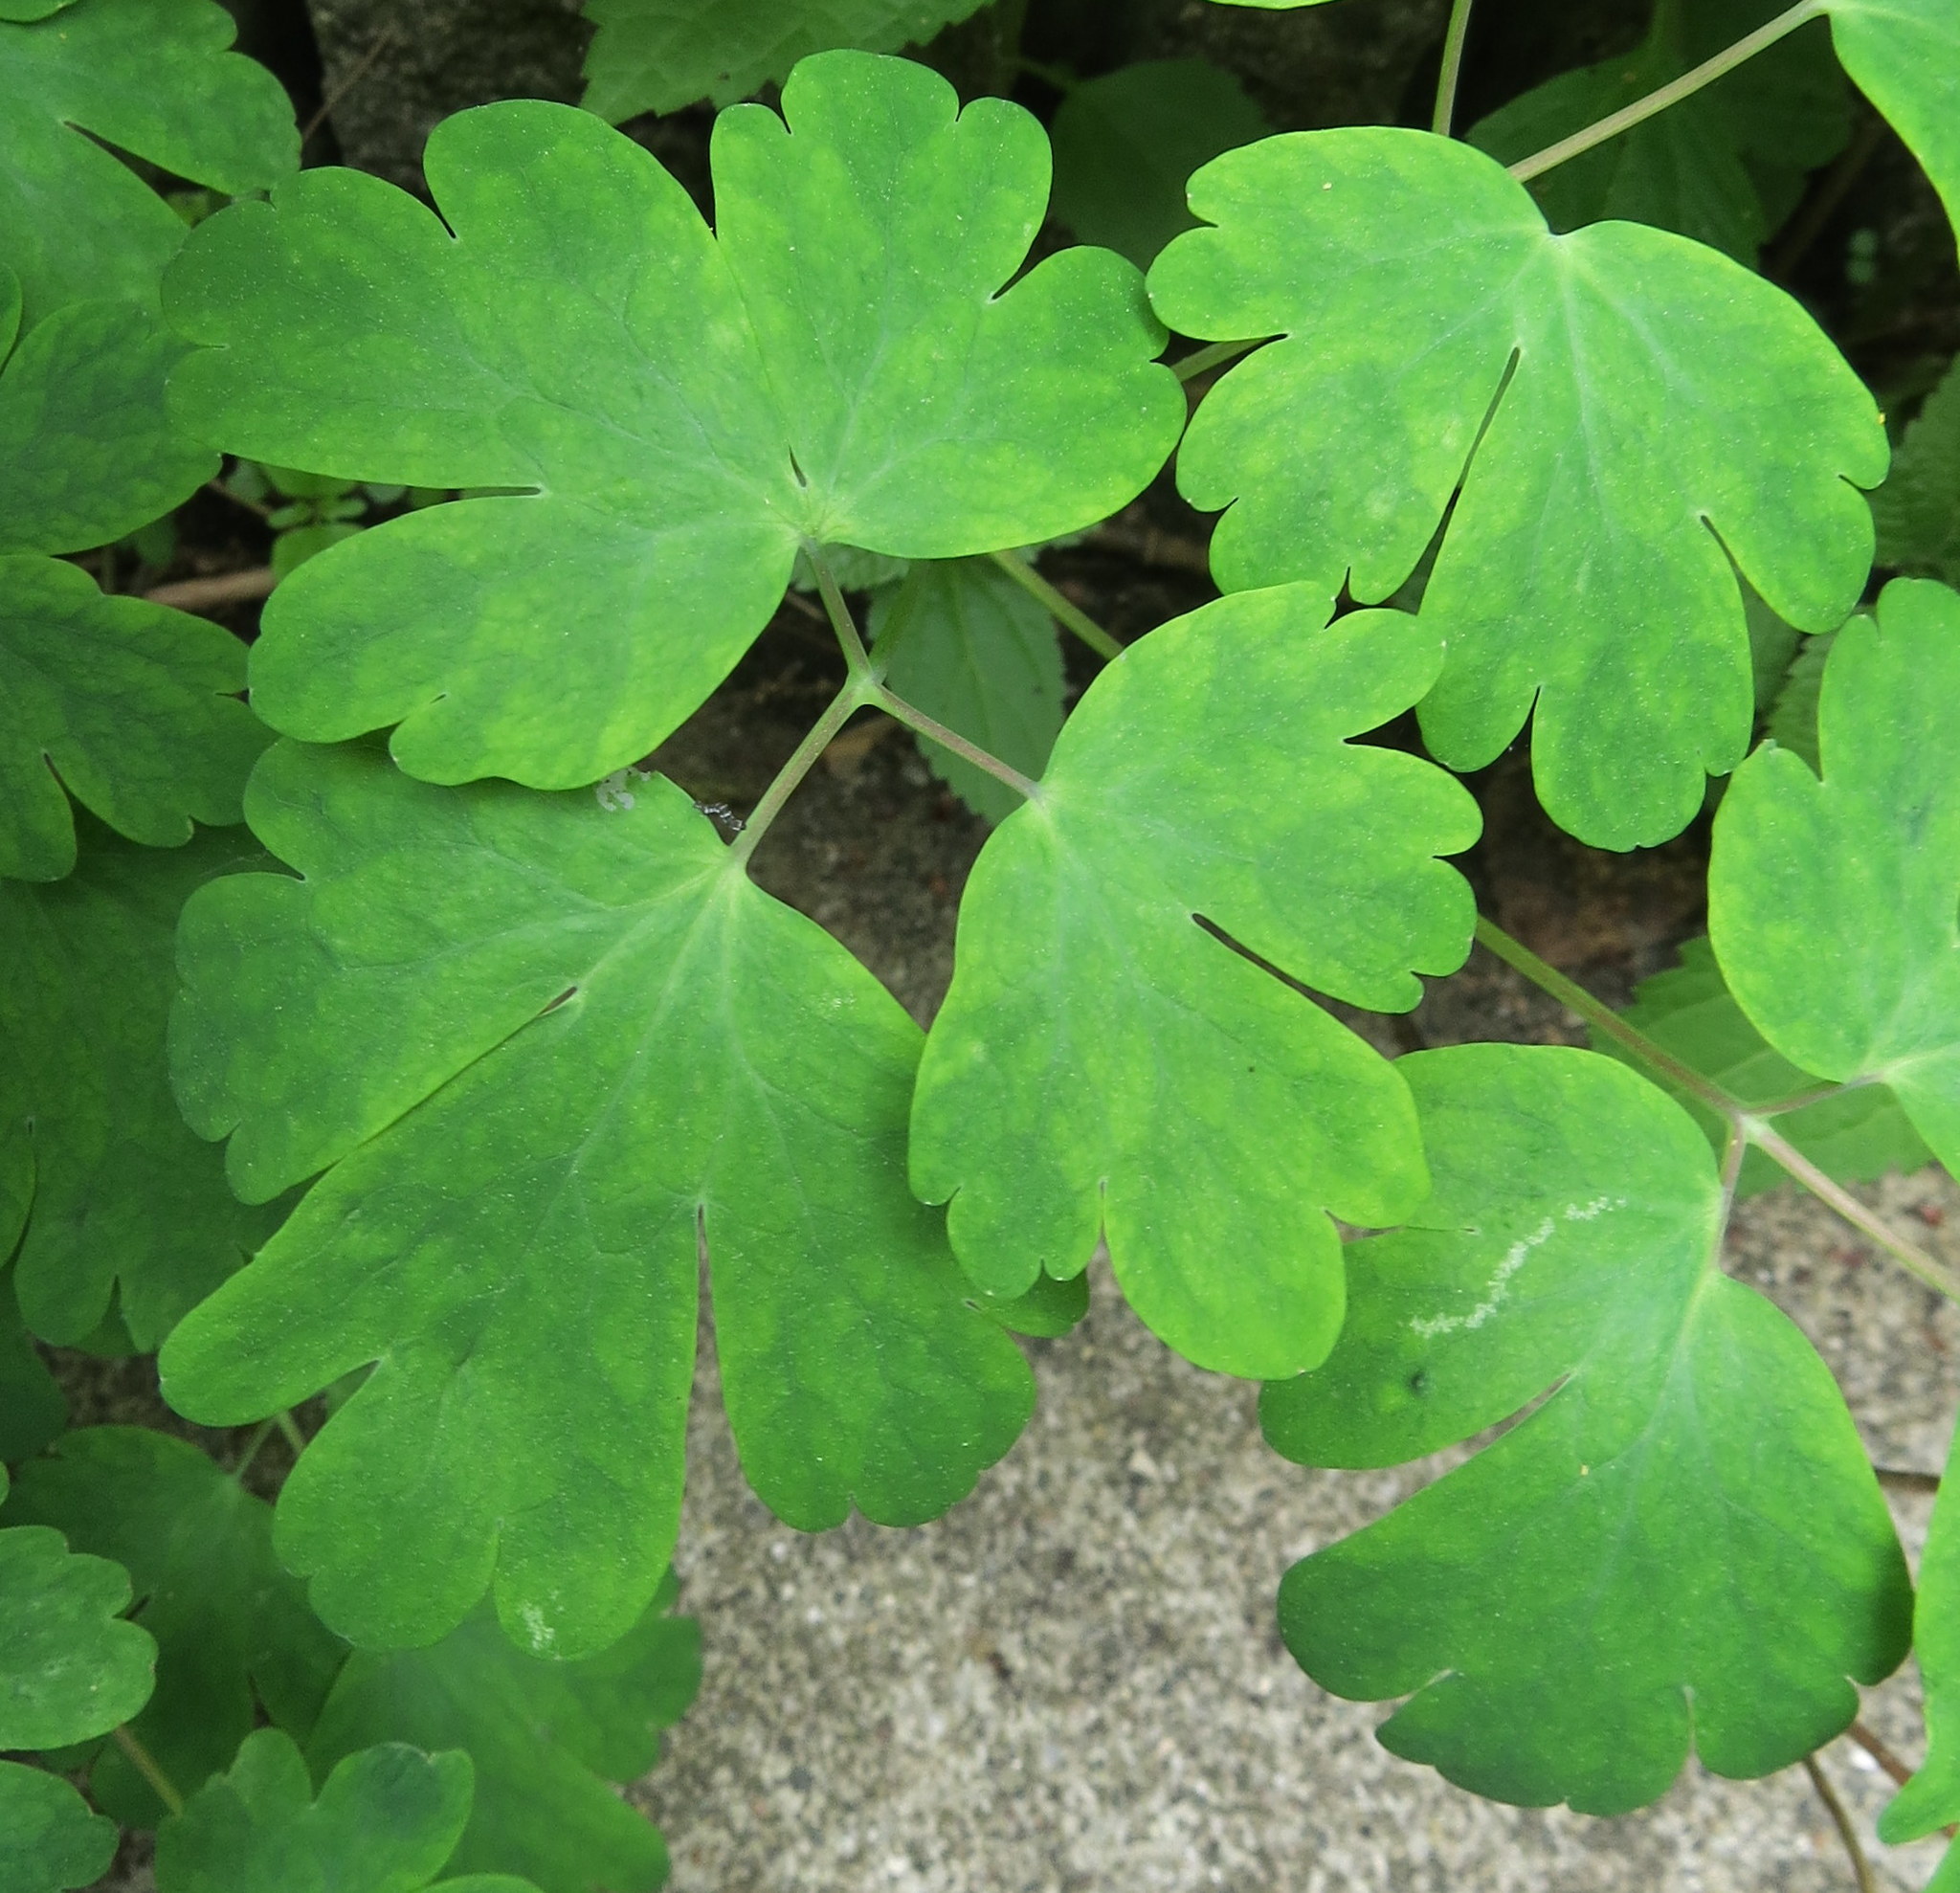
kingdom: Plantae
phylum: Tracheophyta
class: Magnoliopsida
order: Ranunculales
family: Ranunculaceae
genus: Aquilegia
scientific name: Aquilegia canadensis
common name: American columbine
